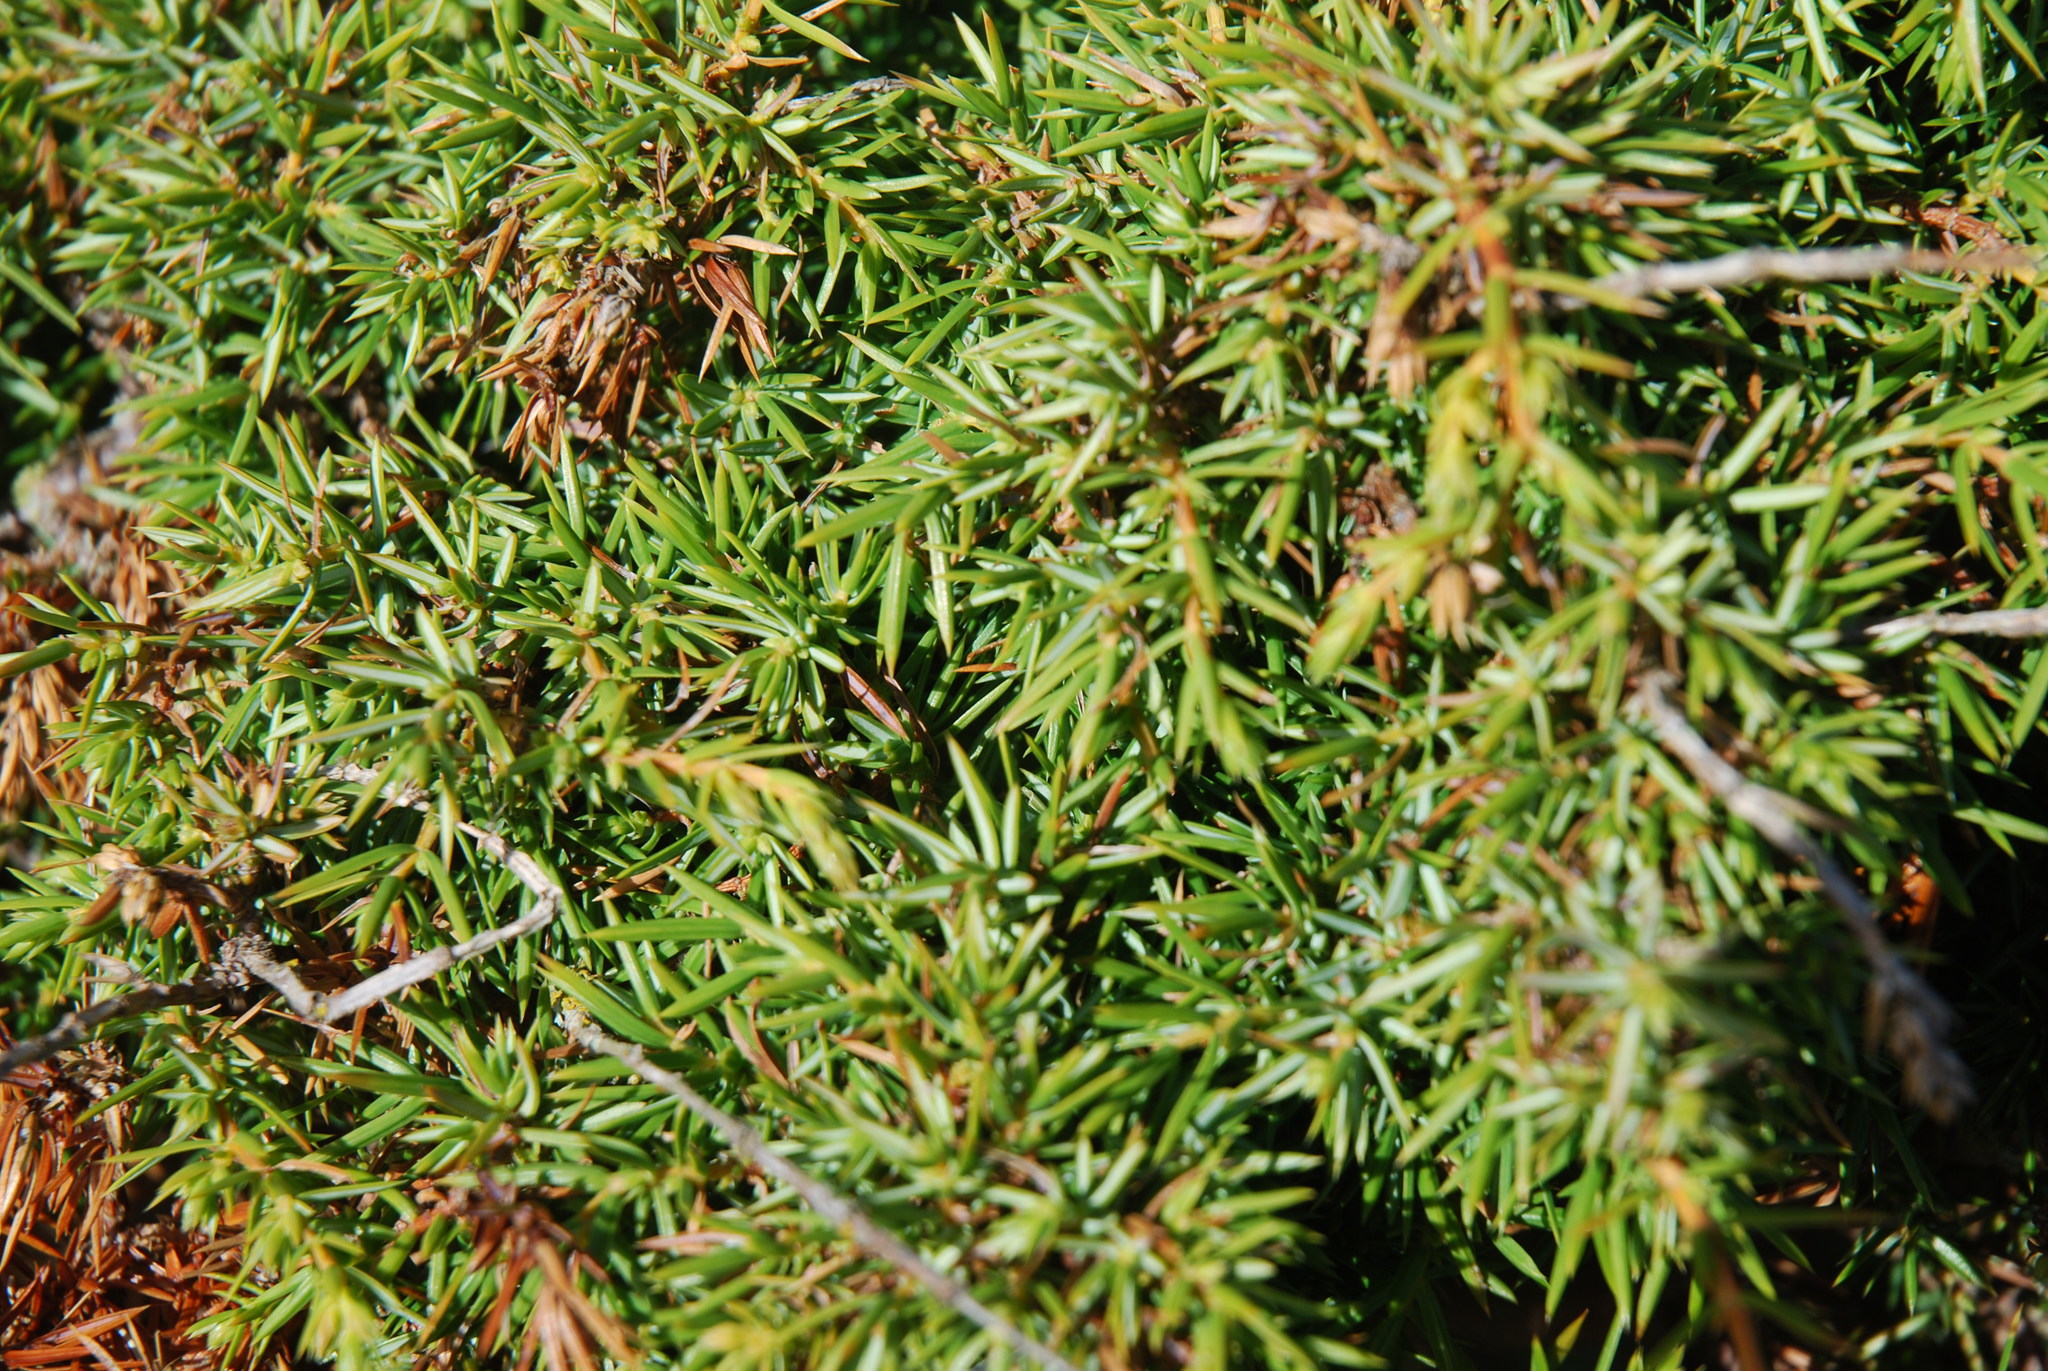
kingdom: Plantae
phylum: Tracheophyta
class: Pinopsida
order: Pinales
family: Cupressaceae
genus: Juniperus
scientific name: Juniperus communis
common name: Common juniper
